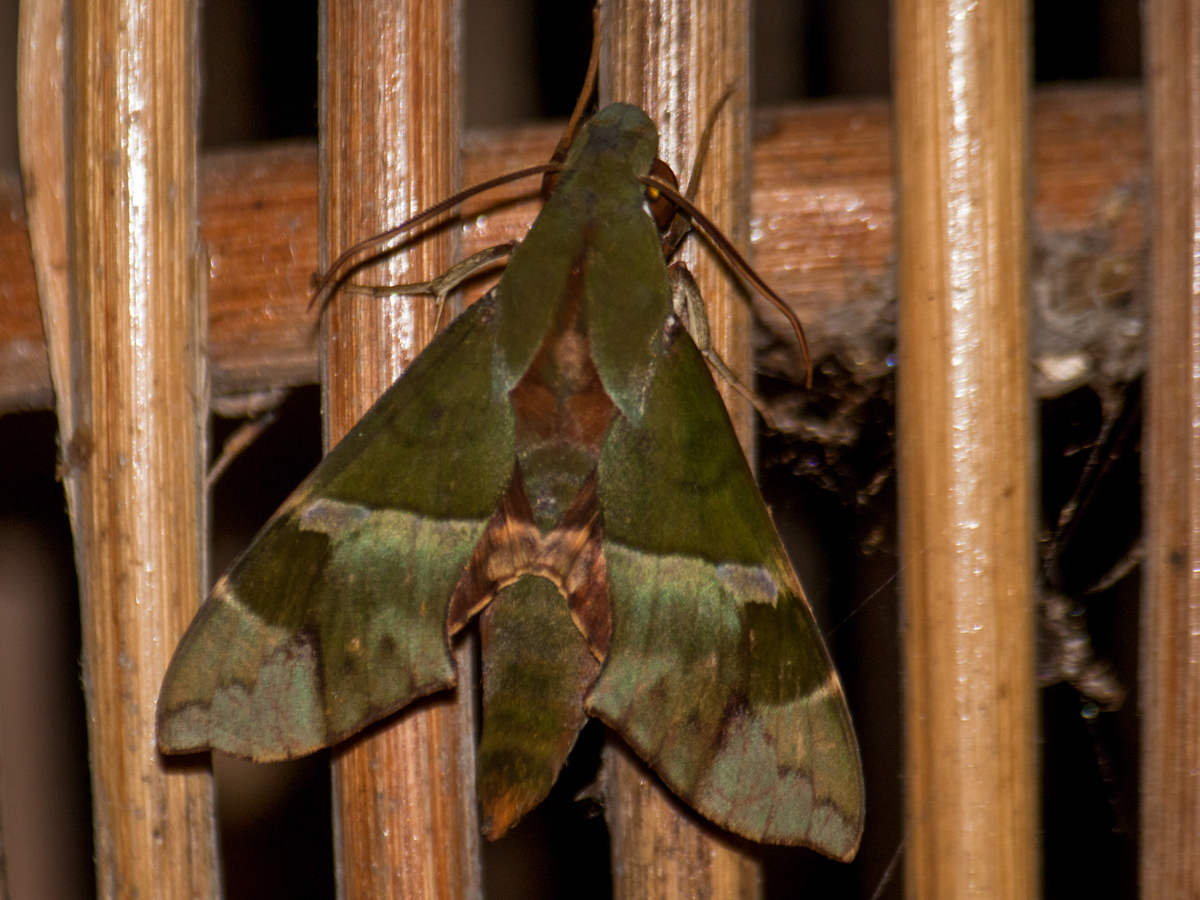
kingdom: Animalia
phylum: Arthropoda
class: Insecta
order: Lepidoptera
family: Sphingidae
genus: Angonyx
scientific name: Angonyx testacea
